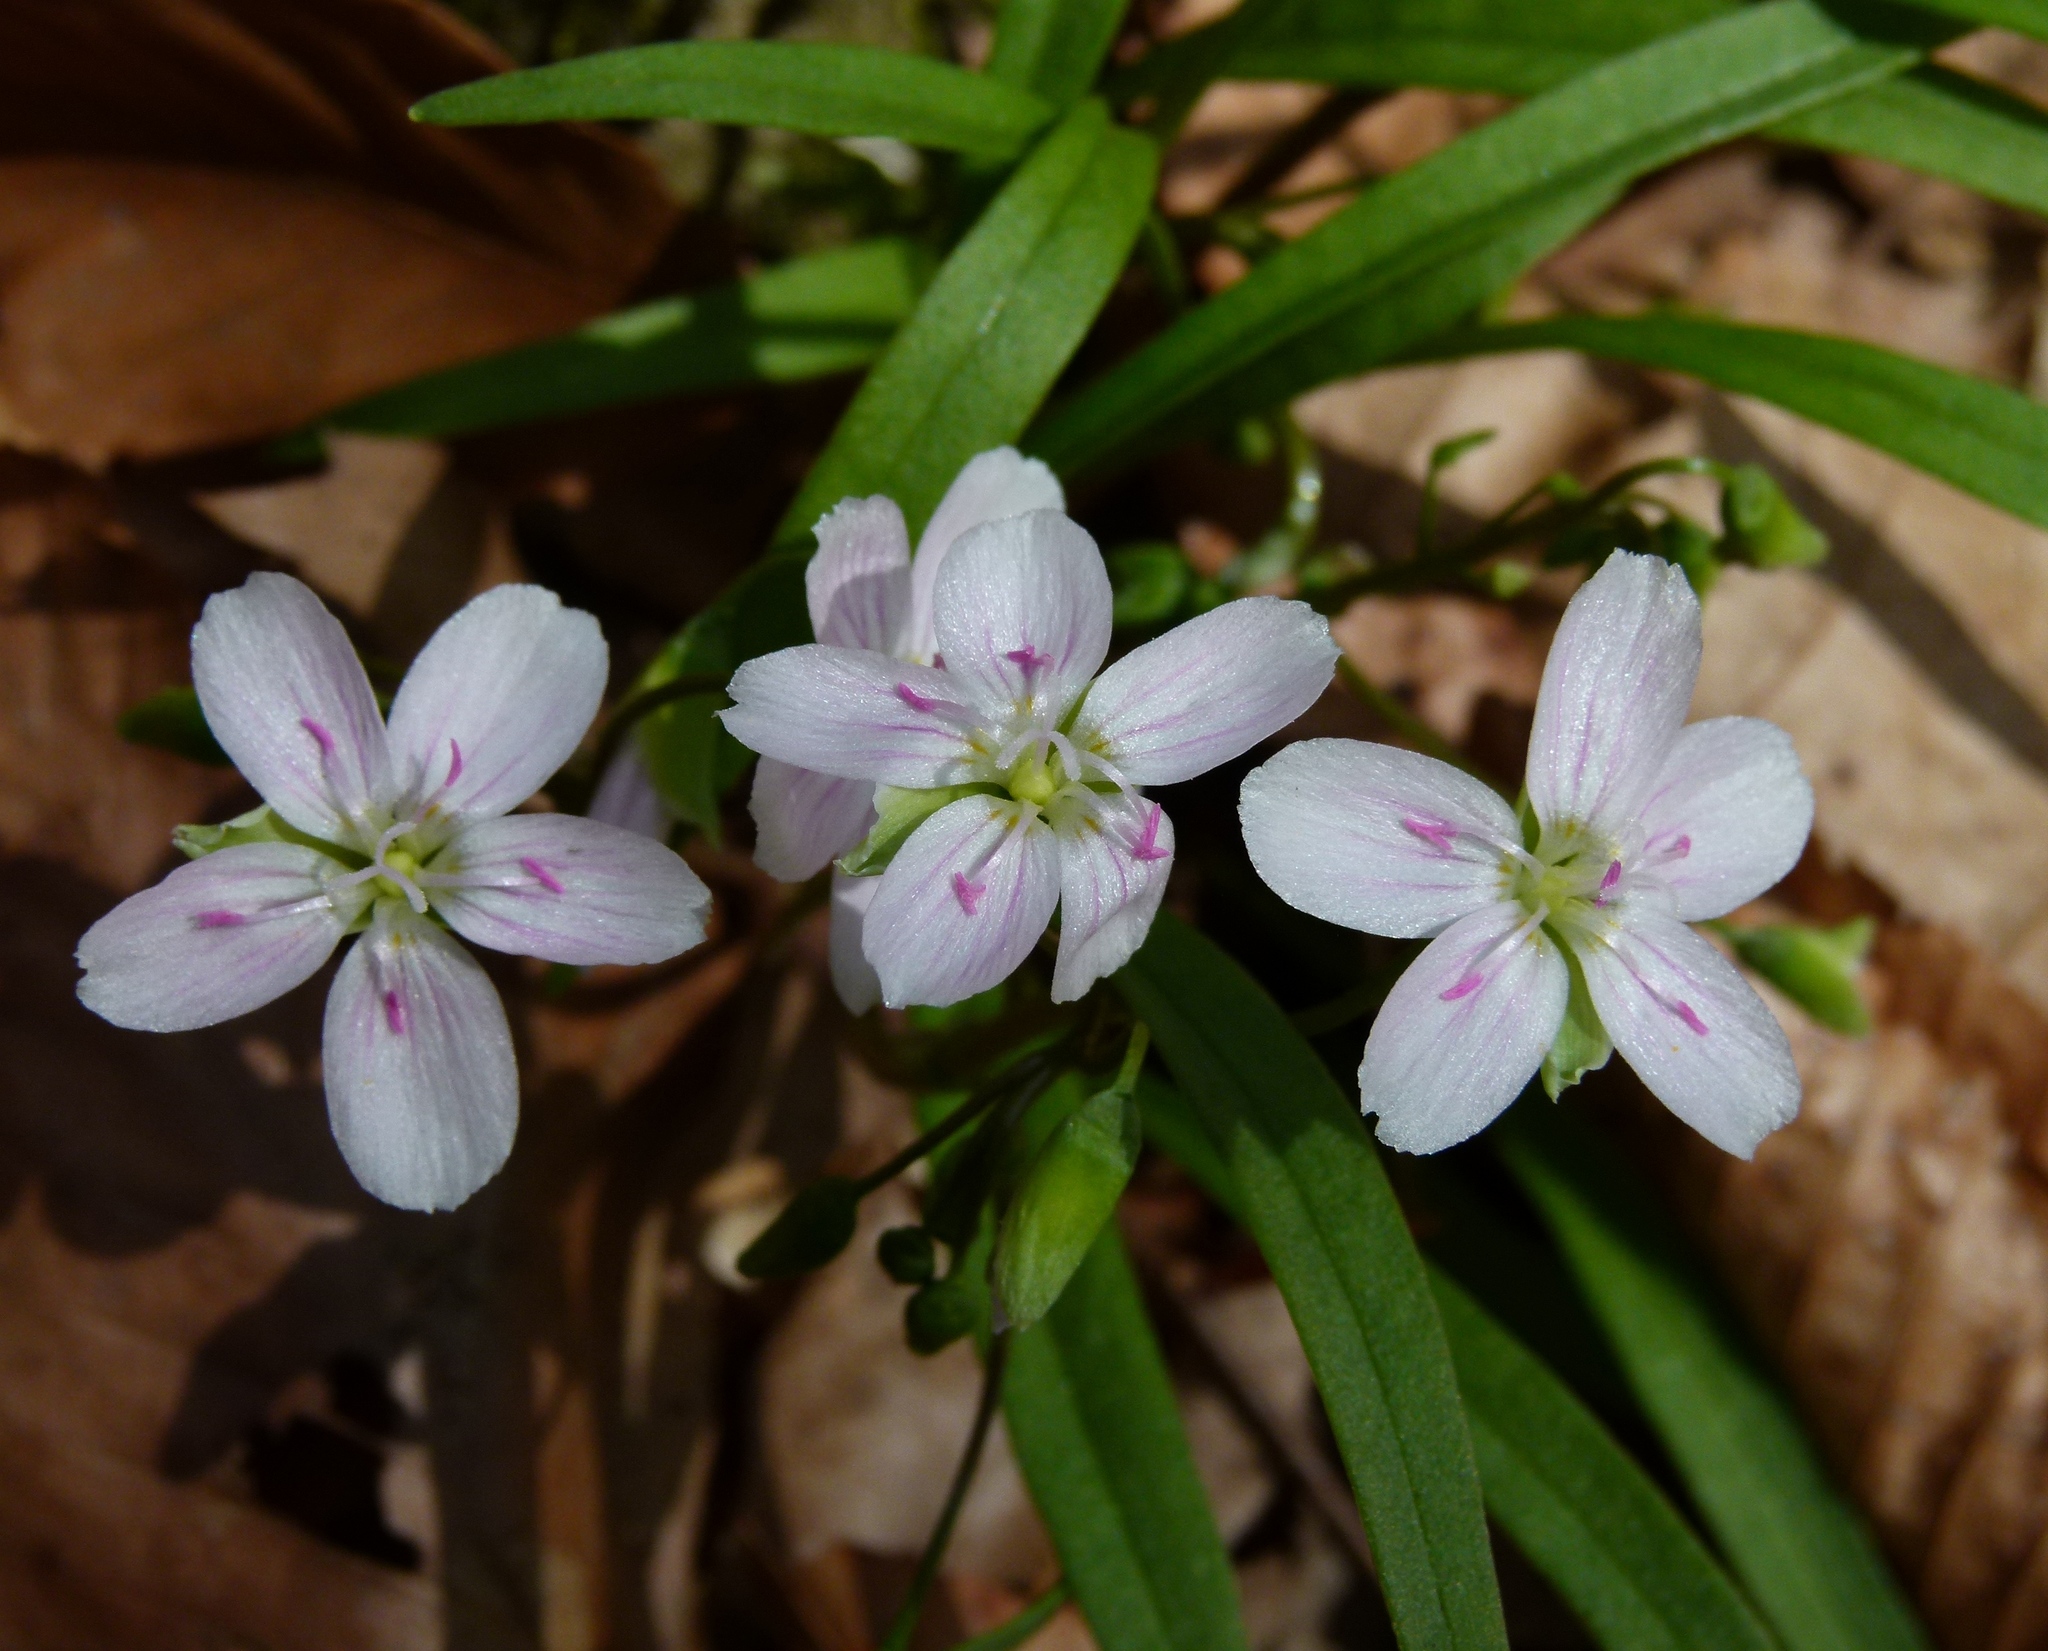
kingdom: Plantae
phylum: Tracheophyta
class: Magnoliopsida
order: Caryophyllales
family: Montiaceae
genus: Claytonia
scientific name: Claytonia virginica
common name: Virginia springbeauty
